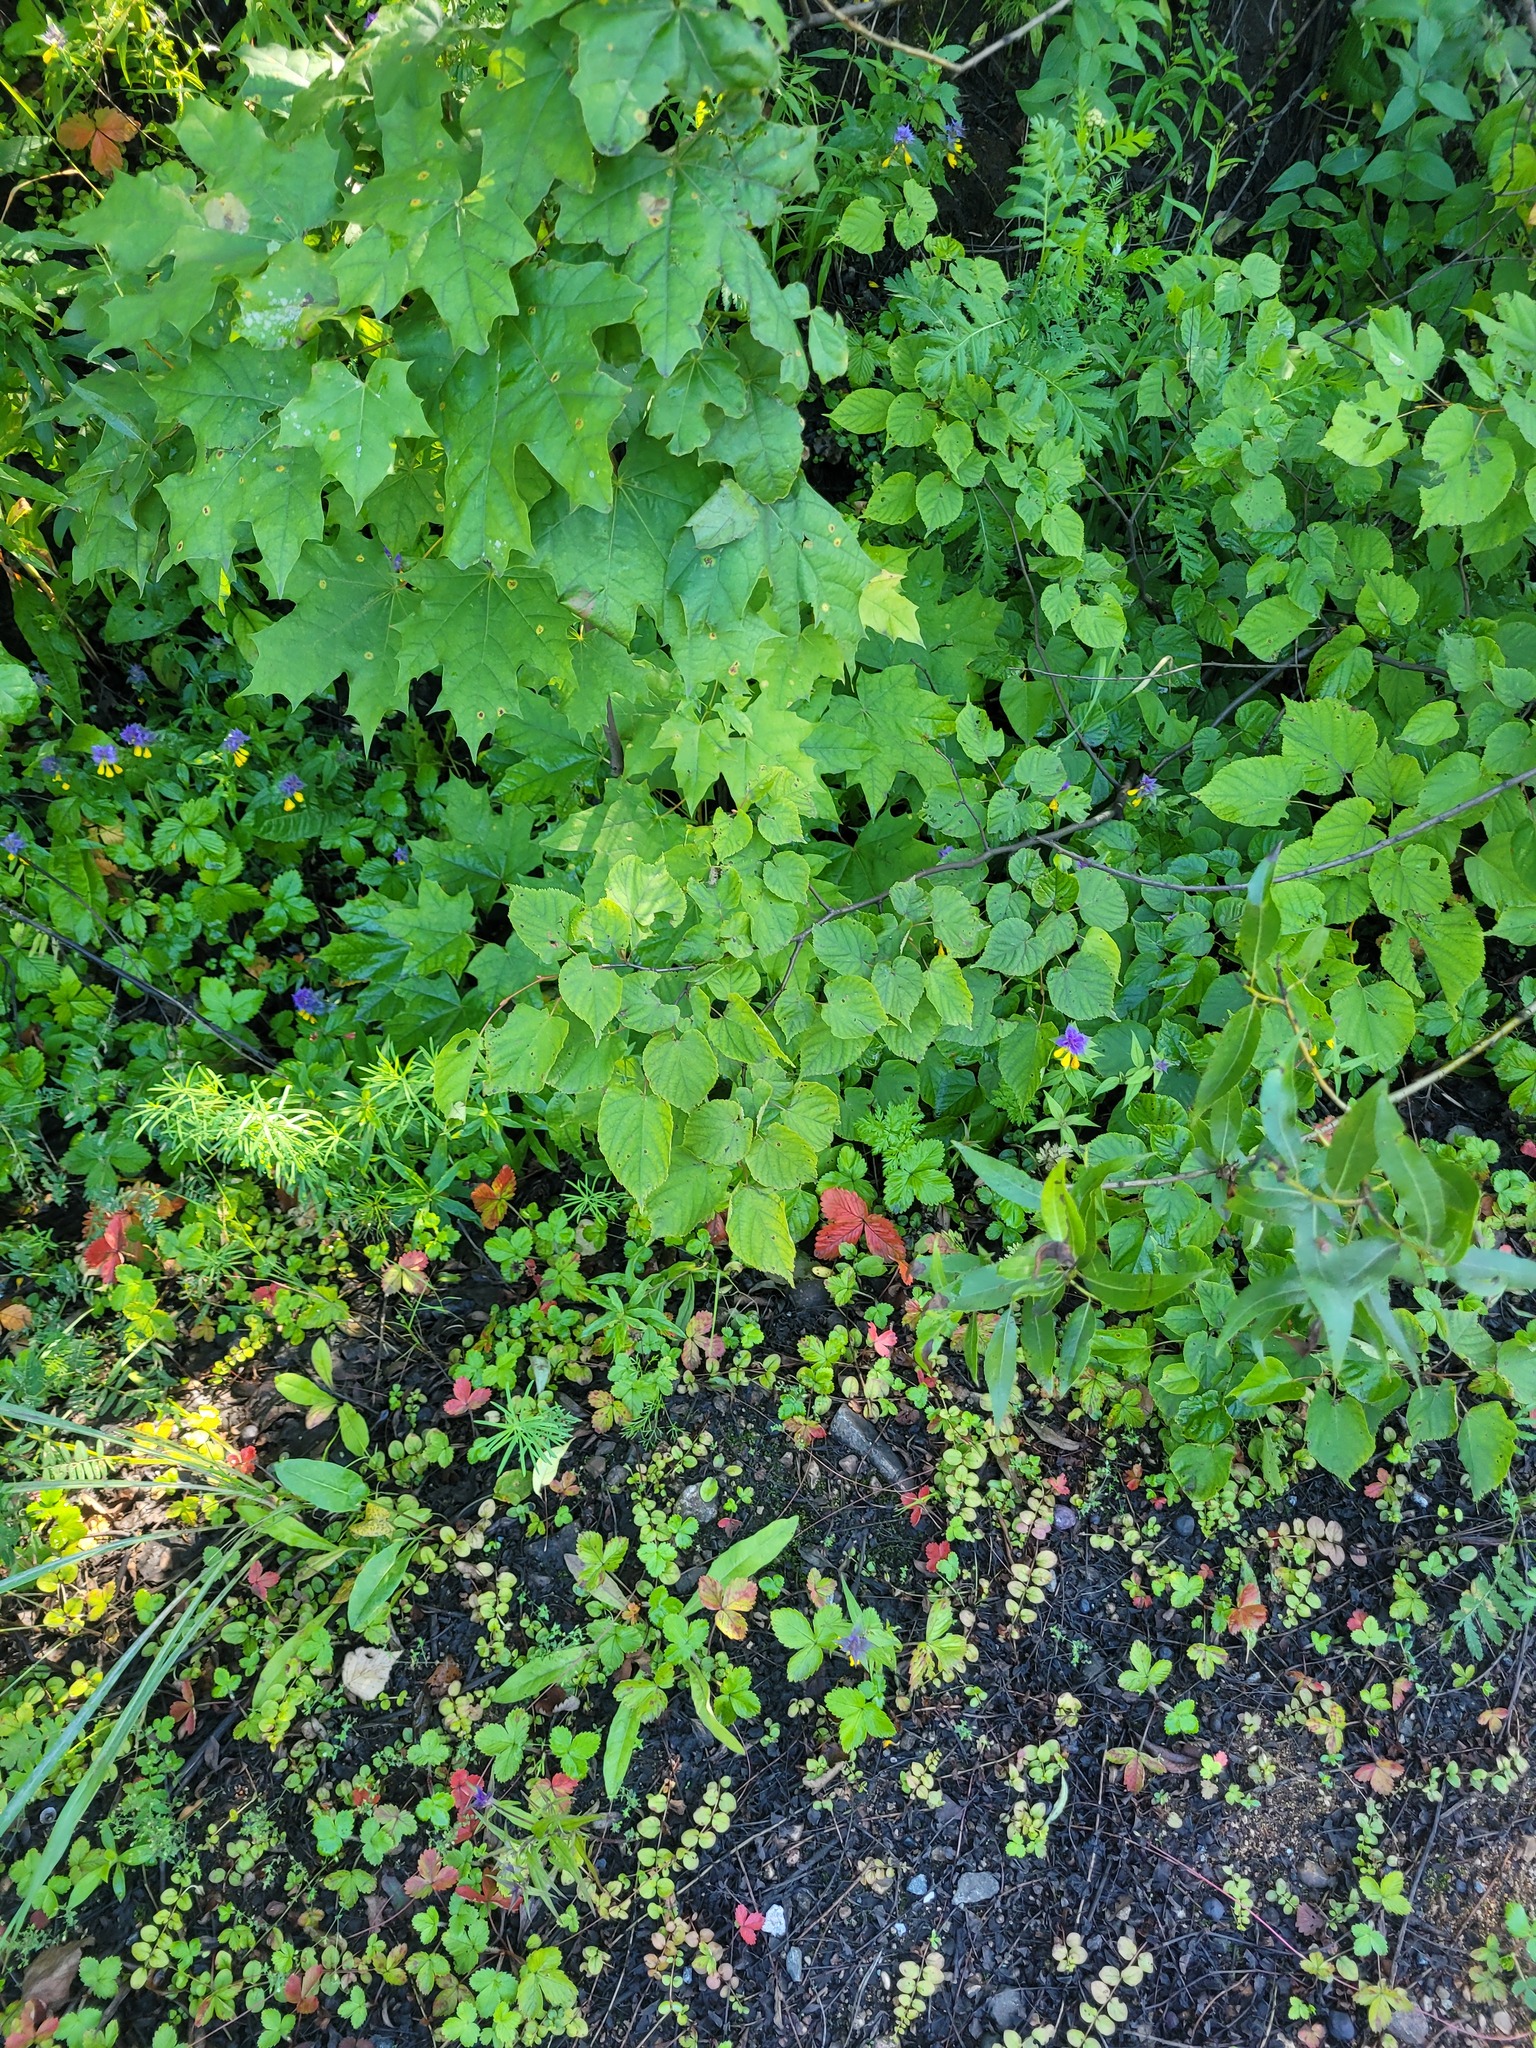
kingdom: Plantae
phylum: Tracheophyta
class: Magnoliopsida
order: Malvales
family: Malvaceae
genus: Tilia
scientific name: Tilia cordata
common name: Small-leaved lime
